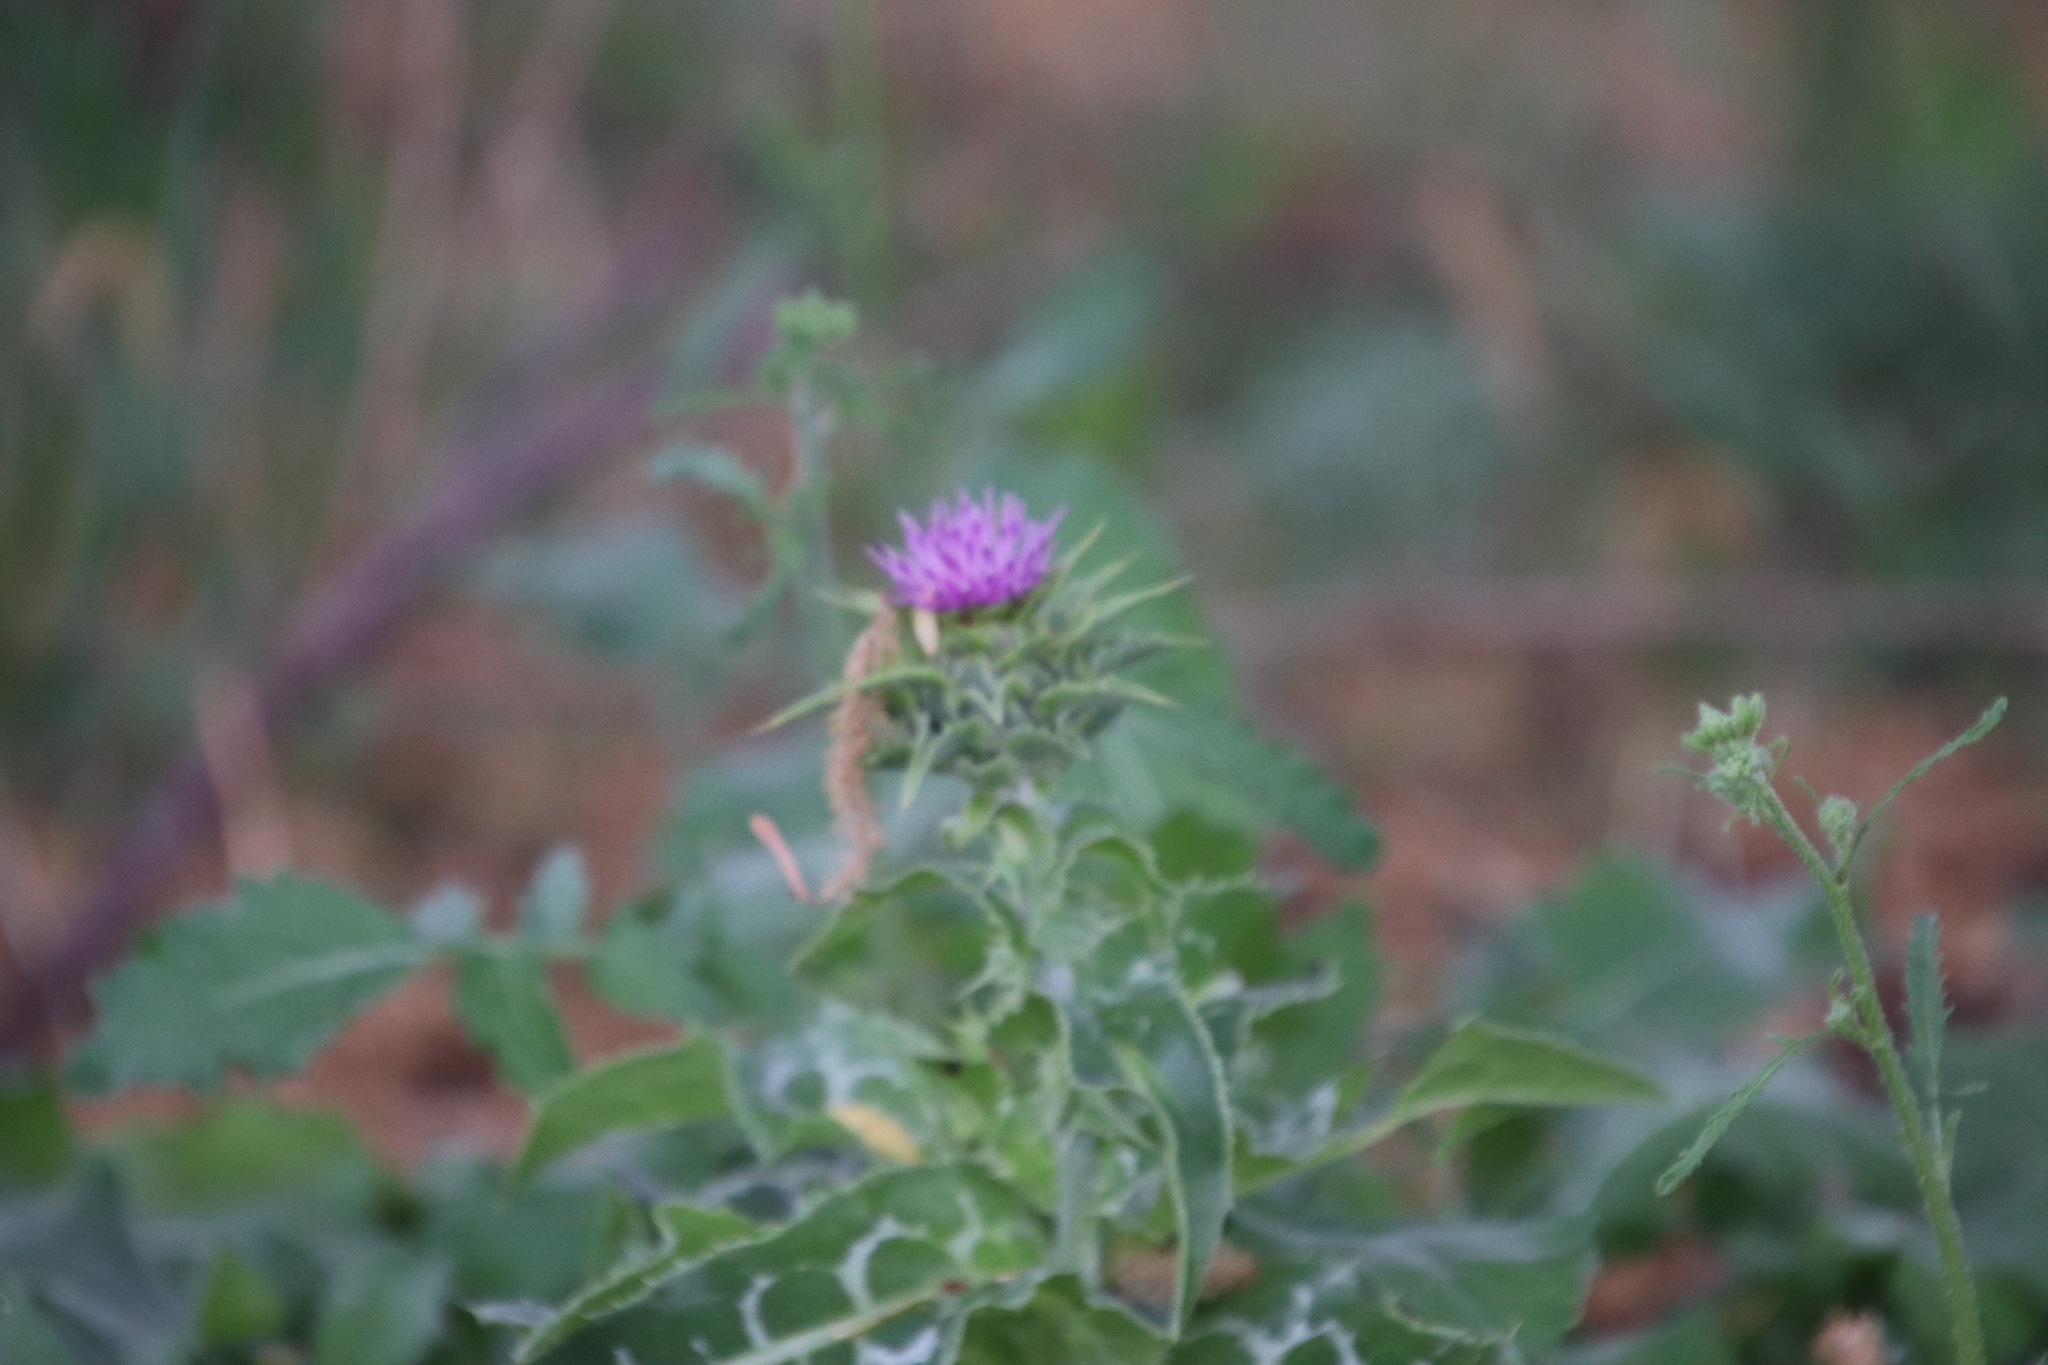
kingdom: Plantae
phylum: Tracheophyta
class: Magnoliopsida
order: Asterales
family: Asteraceae
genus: Silybum
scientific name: Silybum marianum
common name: Milk thistle
